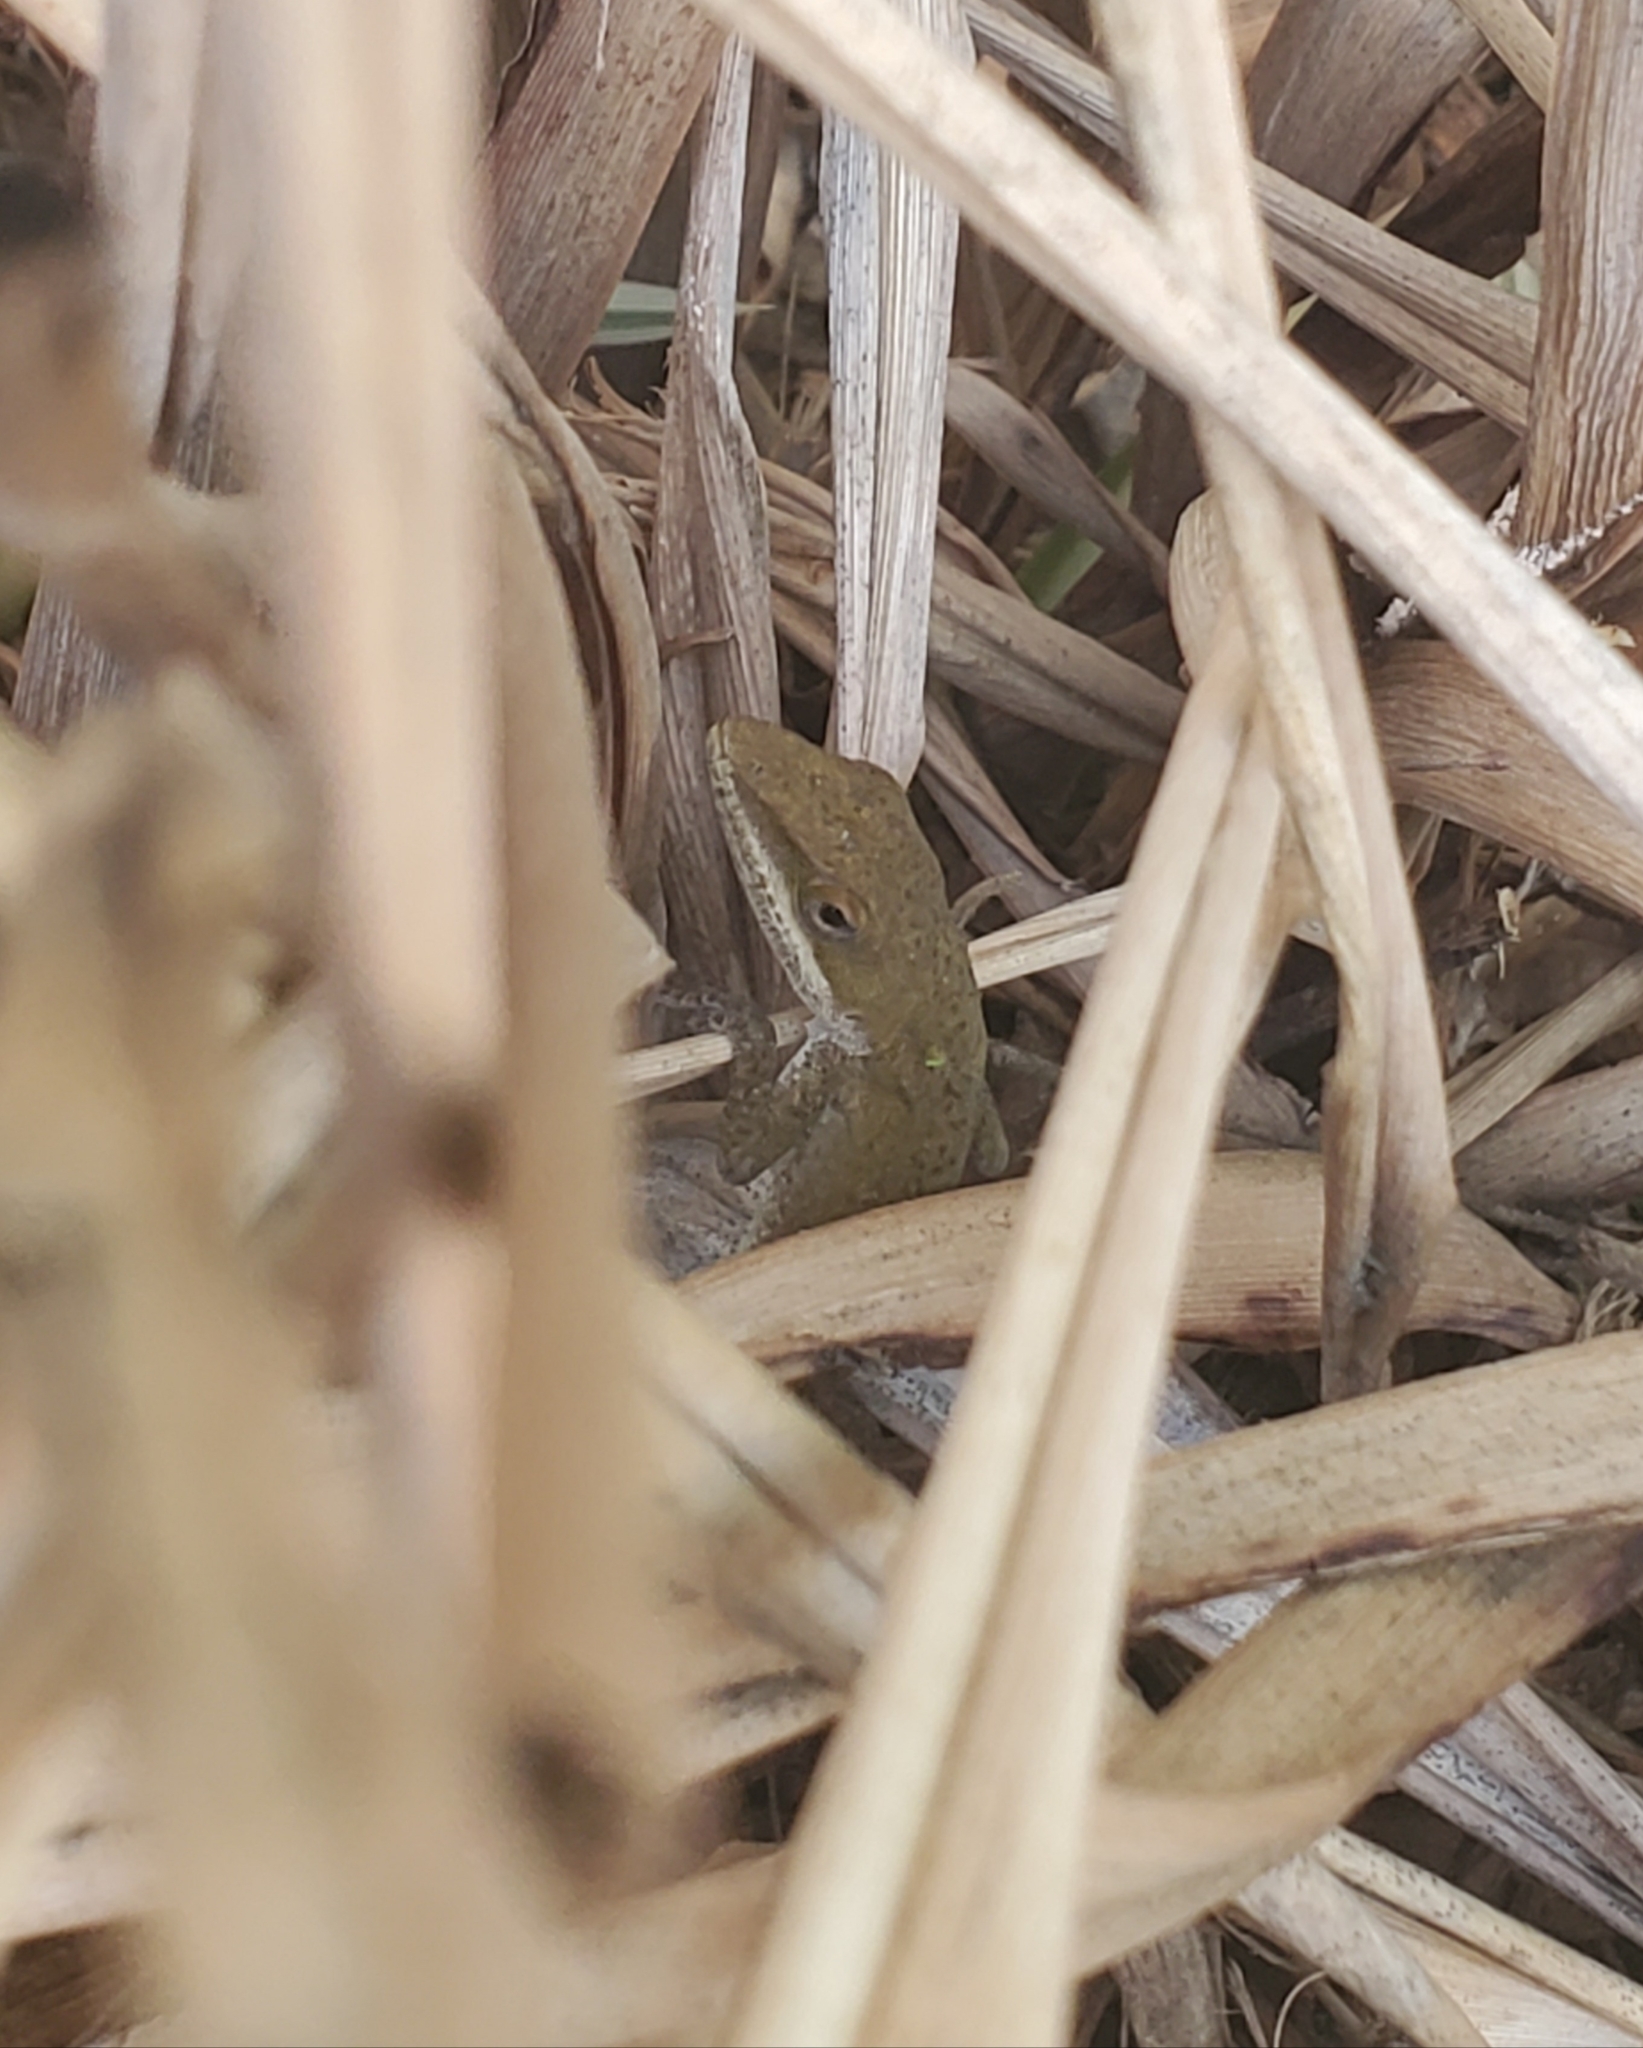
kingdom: Animalia
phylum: Chordata
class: Squamata
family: Dactyloidae
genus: Anolis
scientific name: Anolis carolinensis
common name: Green anole
